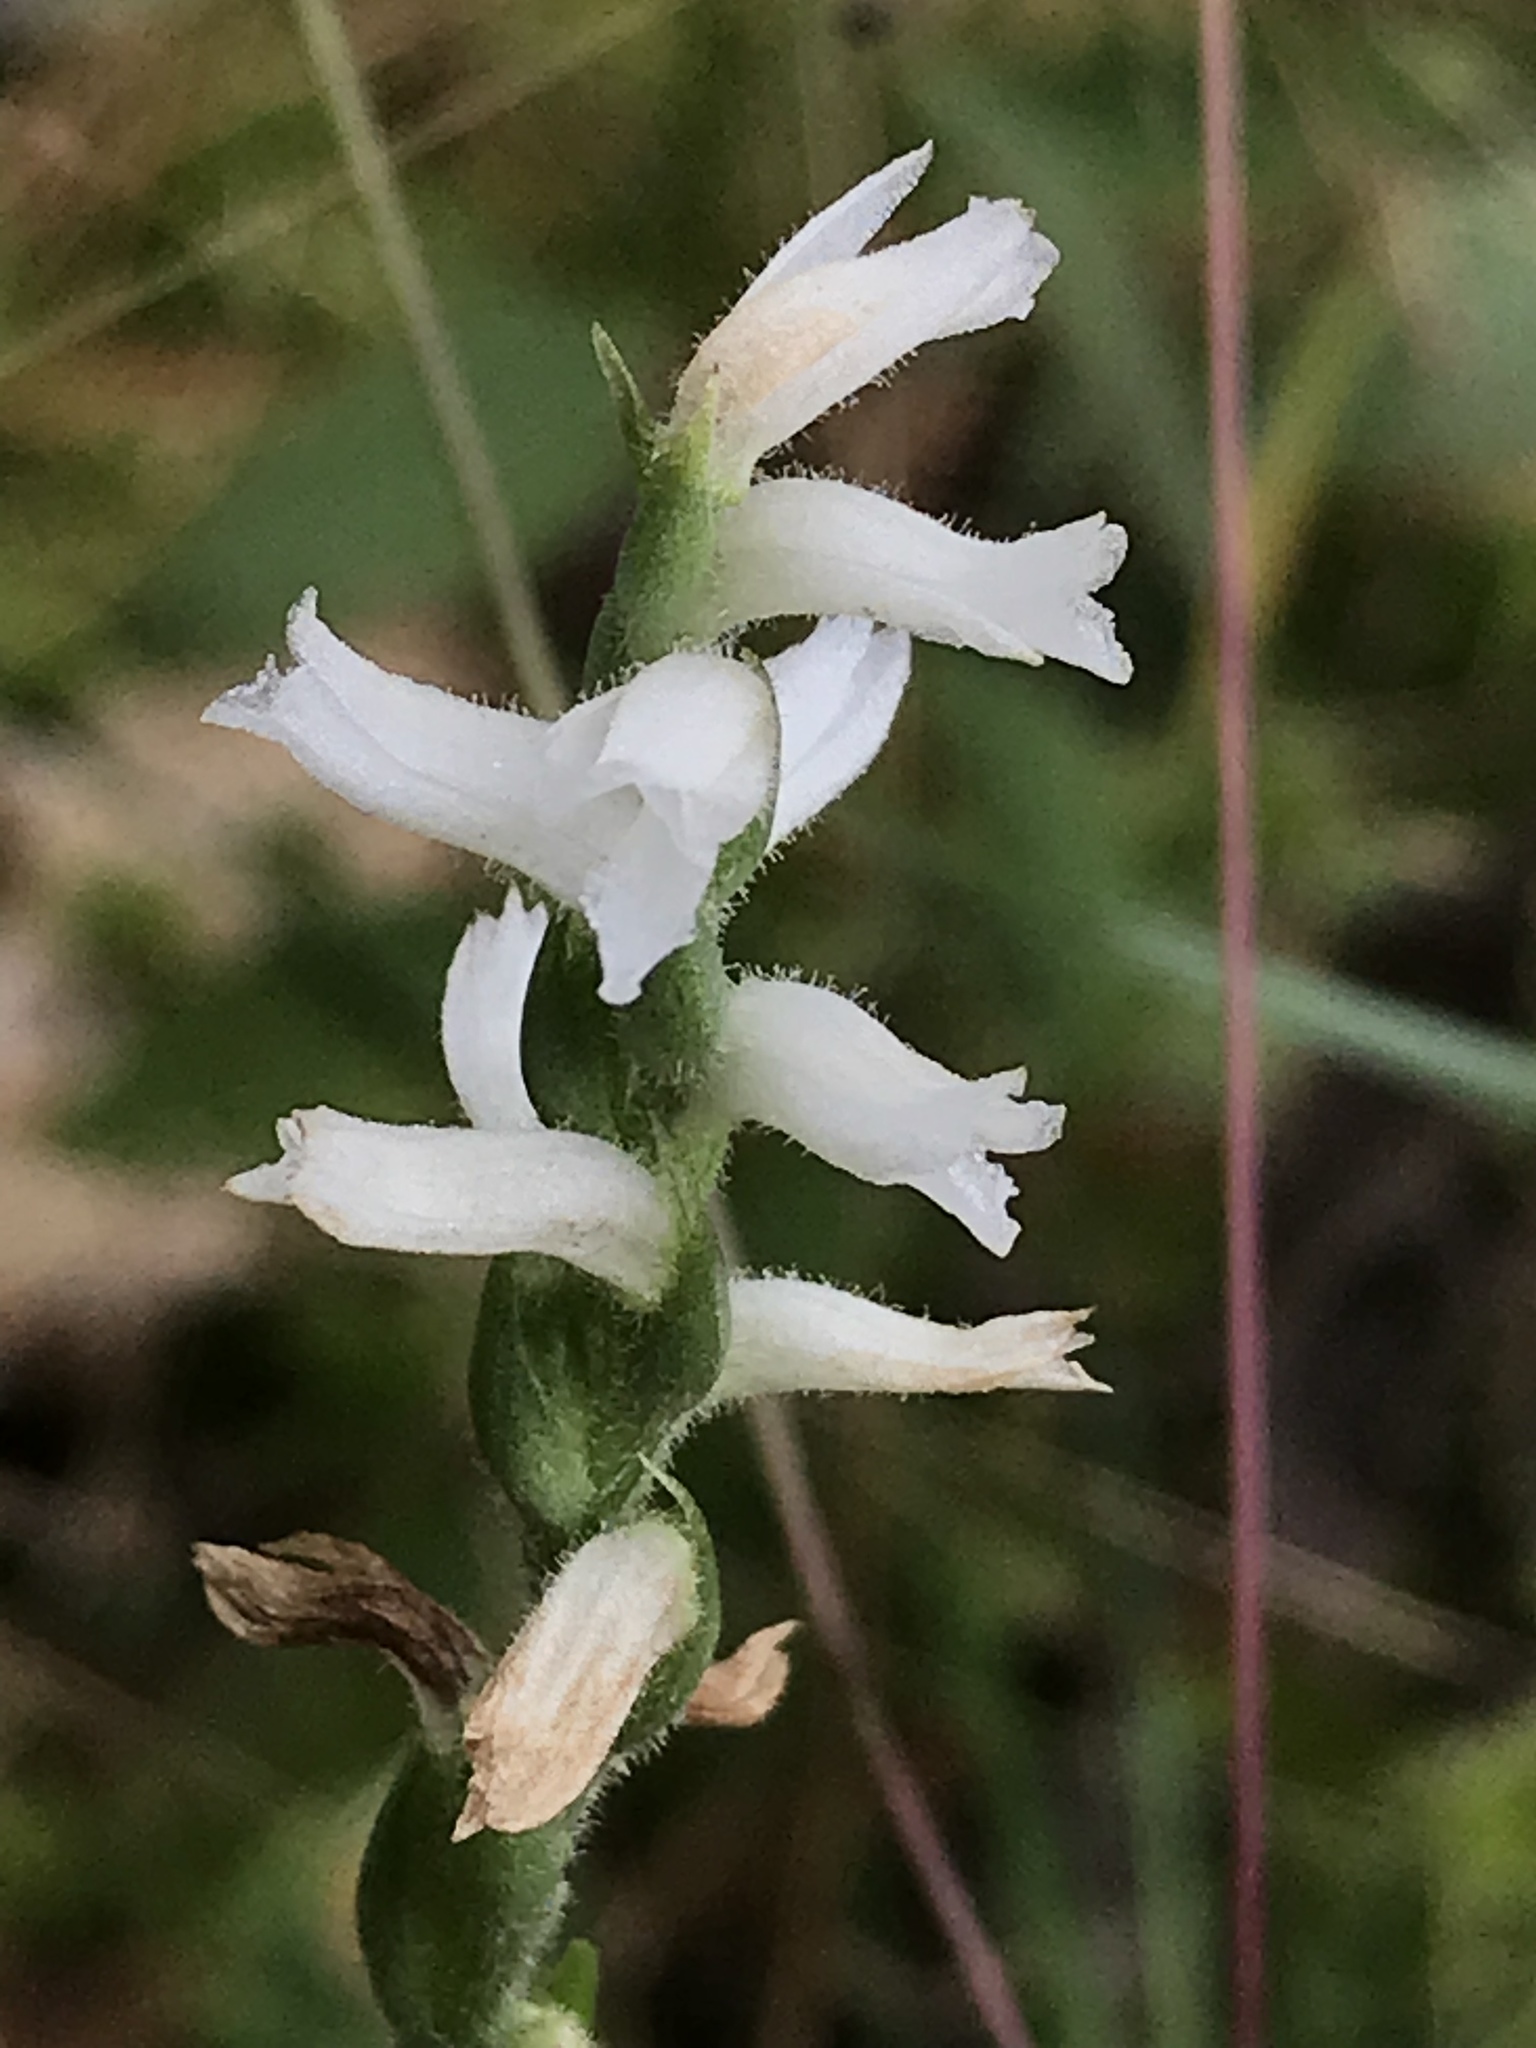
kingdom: Plantae
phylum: Tracheophyta
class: Liliopsida
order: Asparagales
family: Orchidaceae
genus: Spiranthes
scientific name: Spiranthes cernua
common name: Dropping ladies'-tresses
